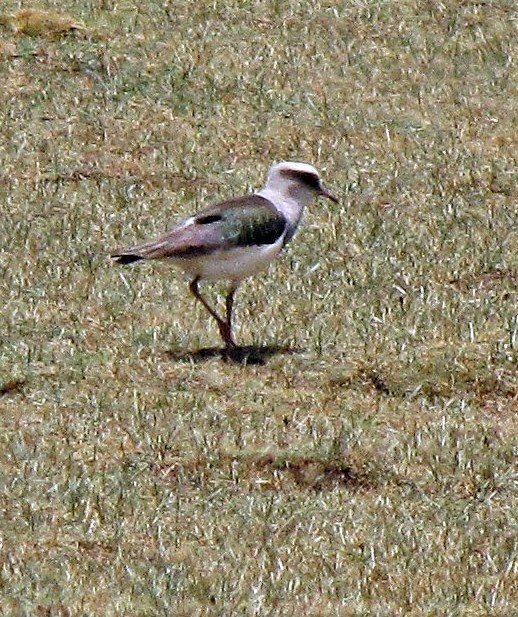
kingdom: Animalia
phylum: Chordata
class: Aves
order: Charadriiformes
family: Charadriidae
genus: Vanellus
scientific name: Vanellus resplendens
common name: Andean lapwing
